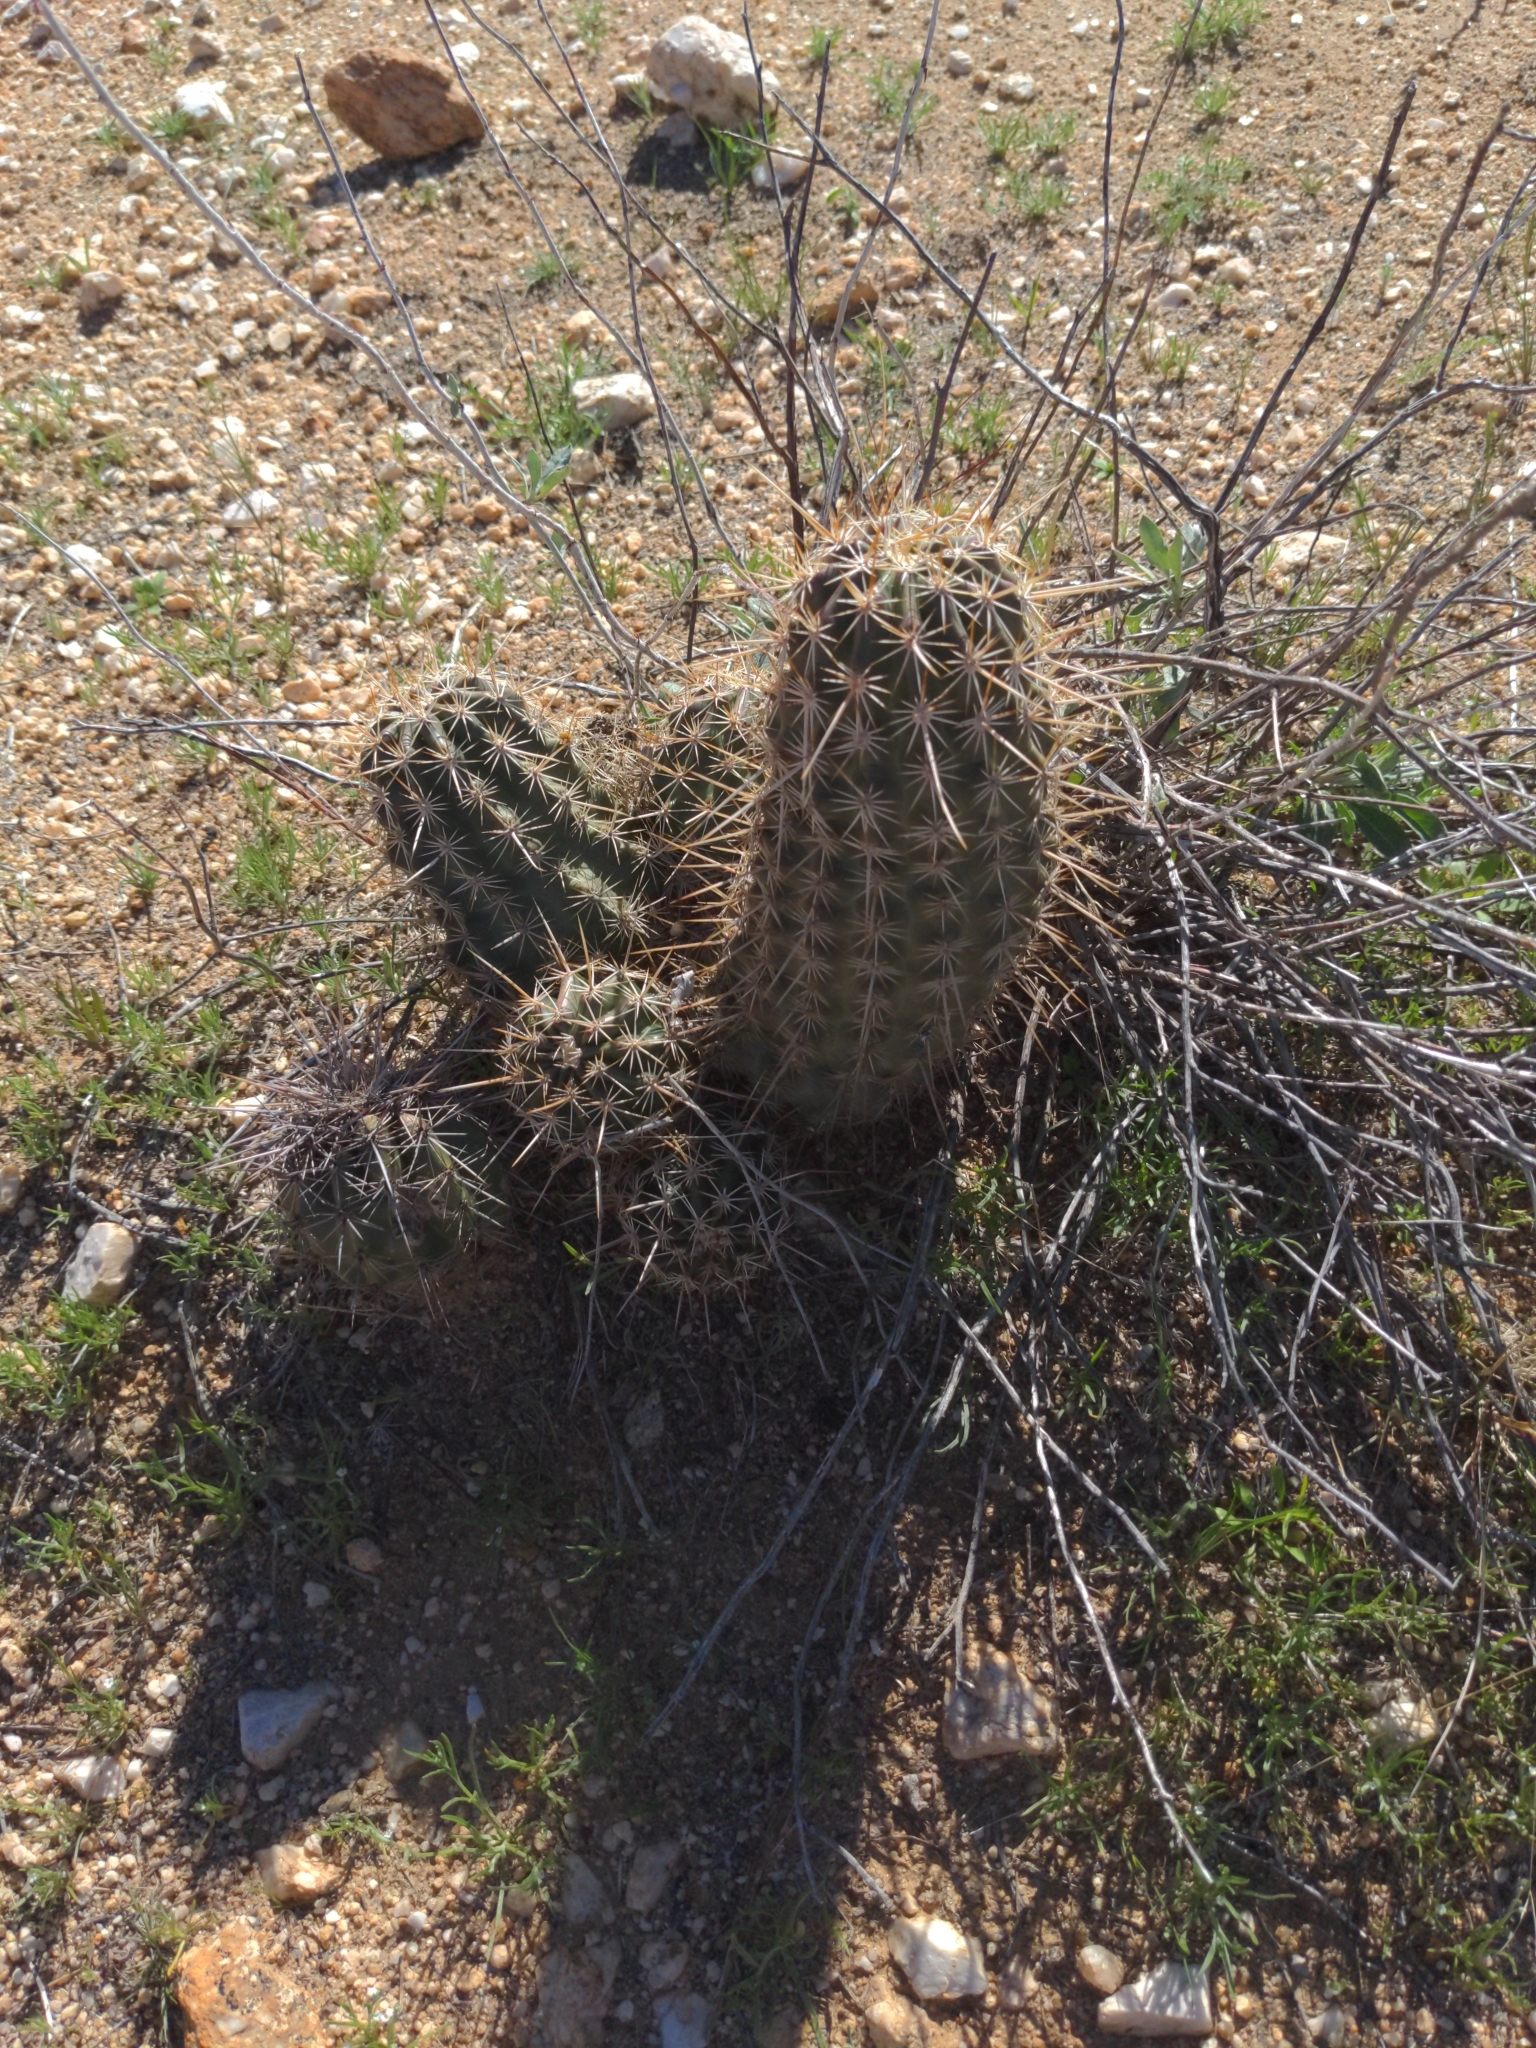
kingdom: Plantae
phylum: Tracheophyta
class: Magnoliopsida
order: Caryophyllales
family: Cactaceae
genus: Echinocereus
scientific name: Echinocereus fasciculatus
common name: Bundle hedgehog
